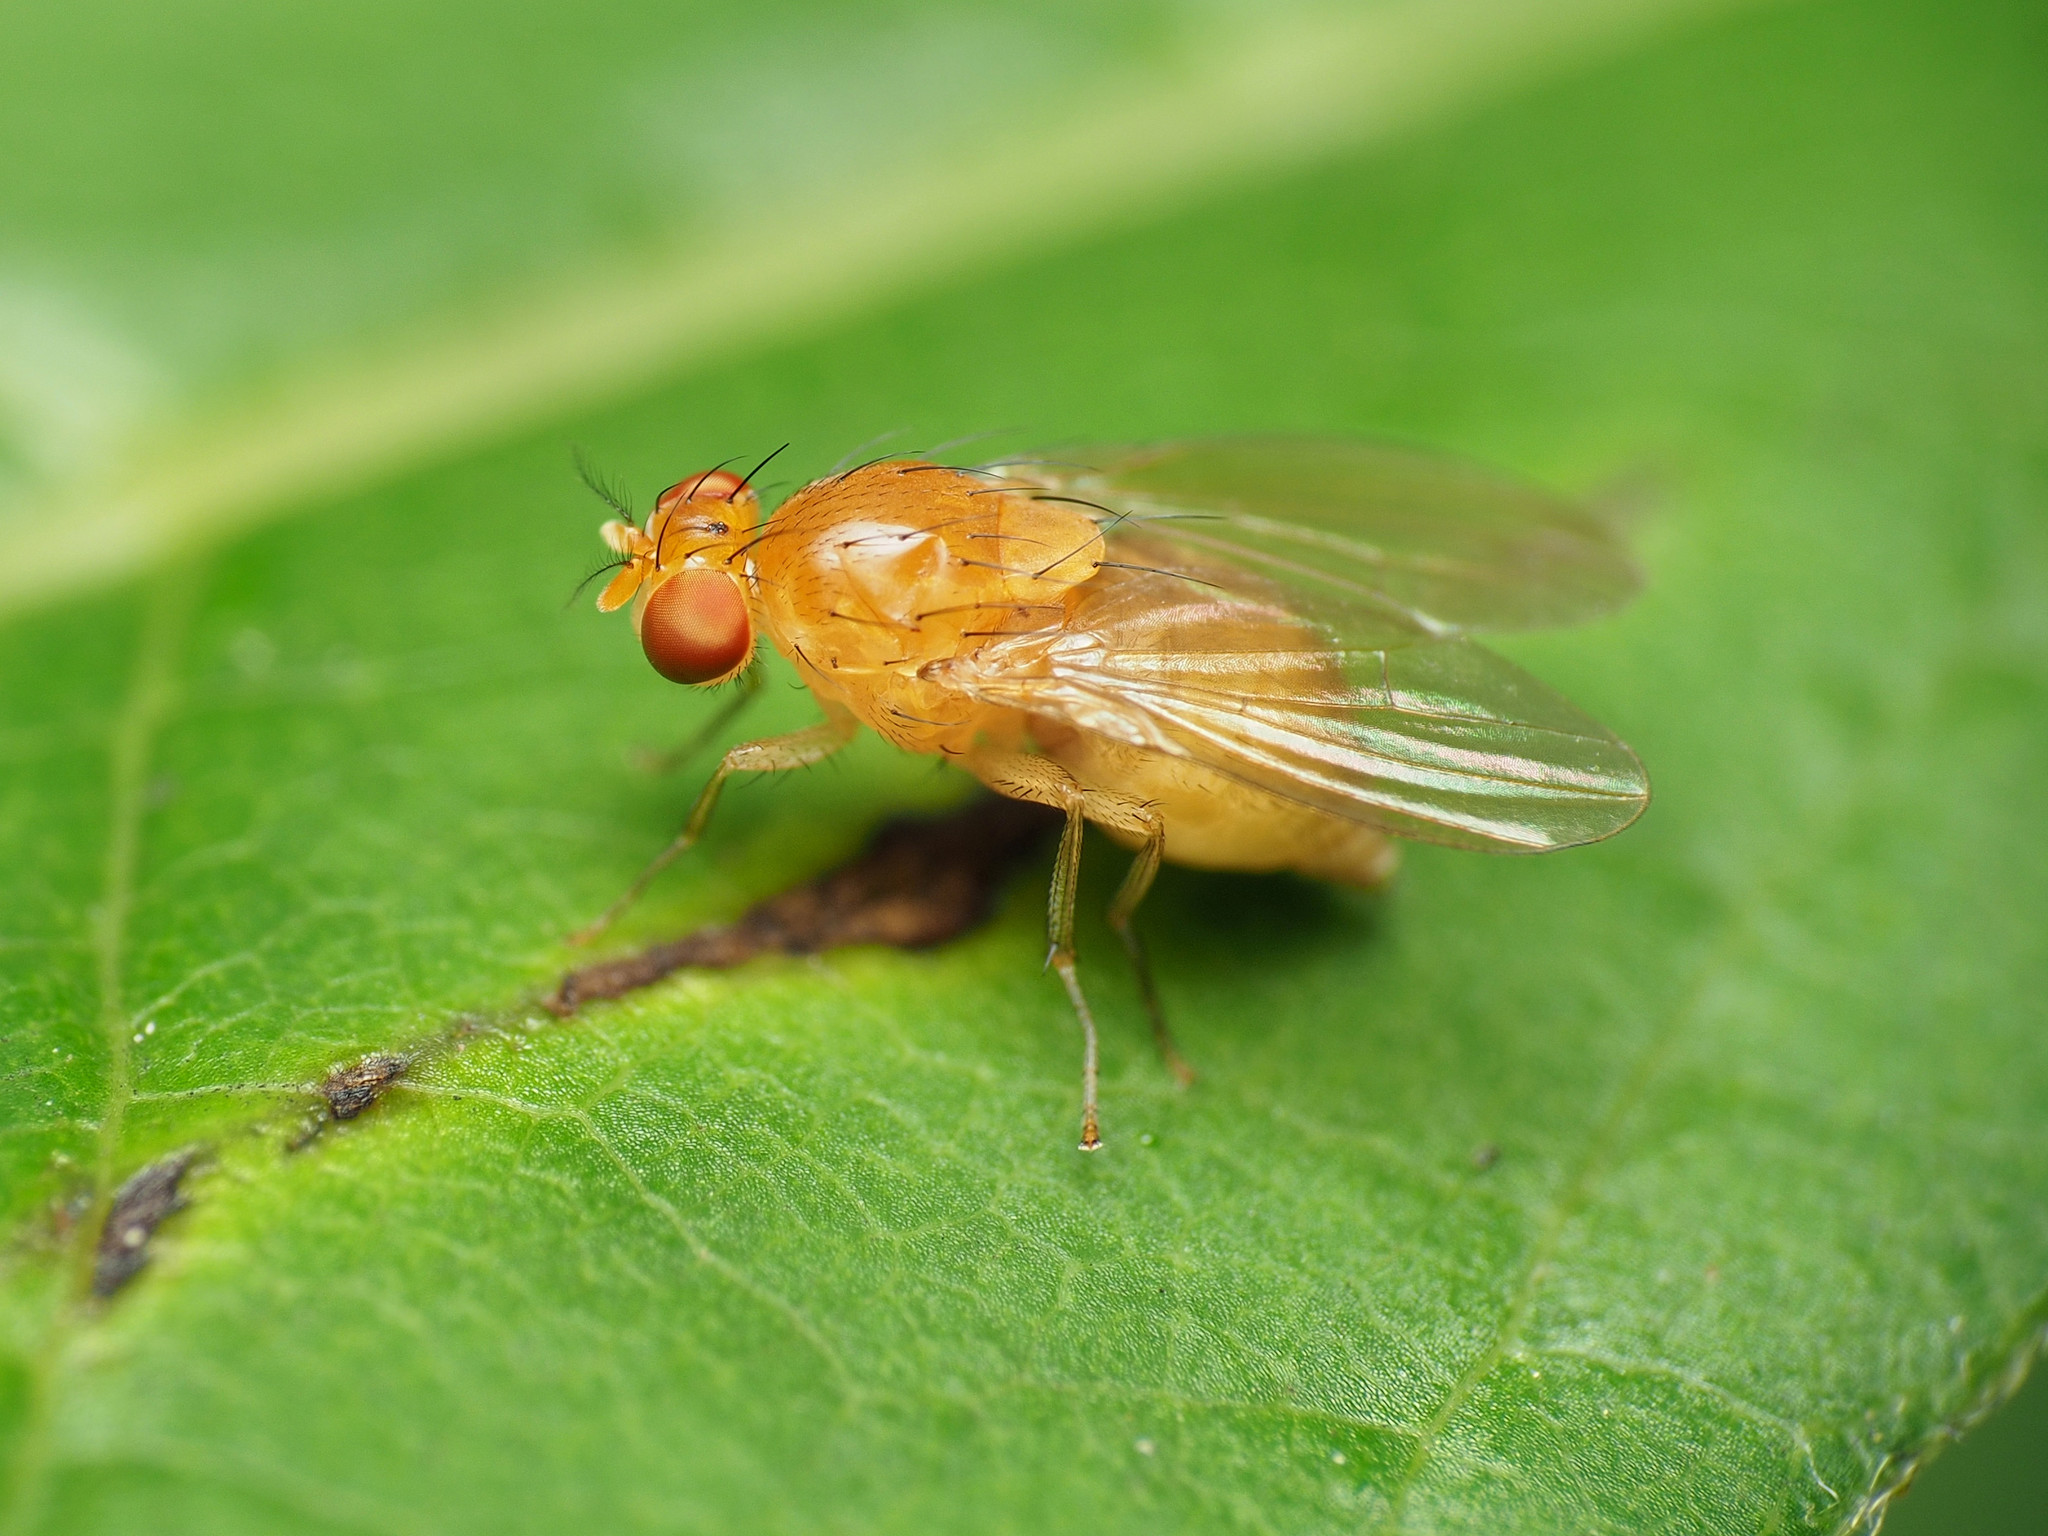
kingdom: Animalia
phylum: Arthropoda
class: Insecta
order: Diptera
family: Lauxaniidae
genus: Neogriphoneura
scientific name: Neogriphoneura sordida
